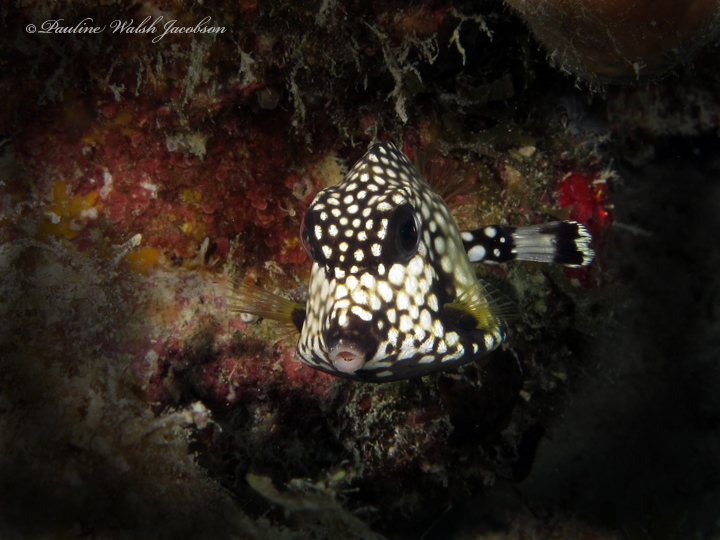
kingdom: Animalia
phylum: Chordata
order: Tetraodontiformes
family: Ostraciidae
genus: Lactophrys
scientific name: Lactophrys triqueter
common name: Smooth trunkfish
